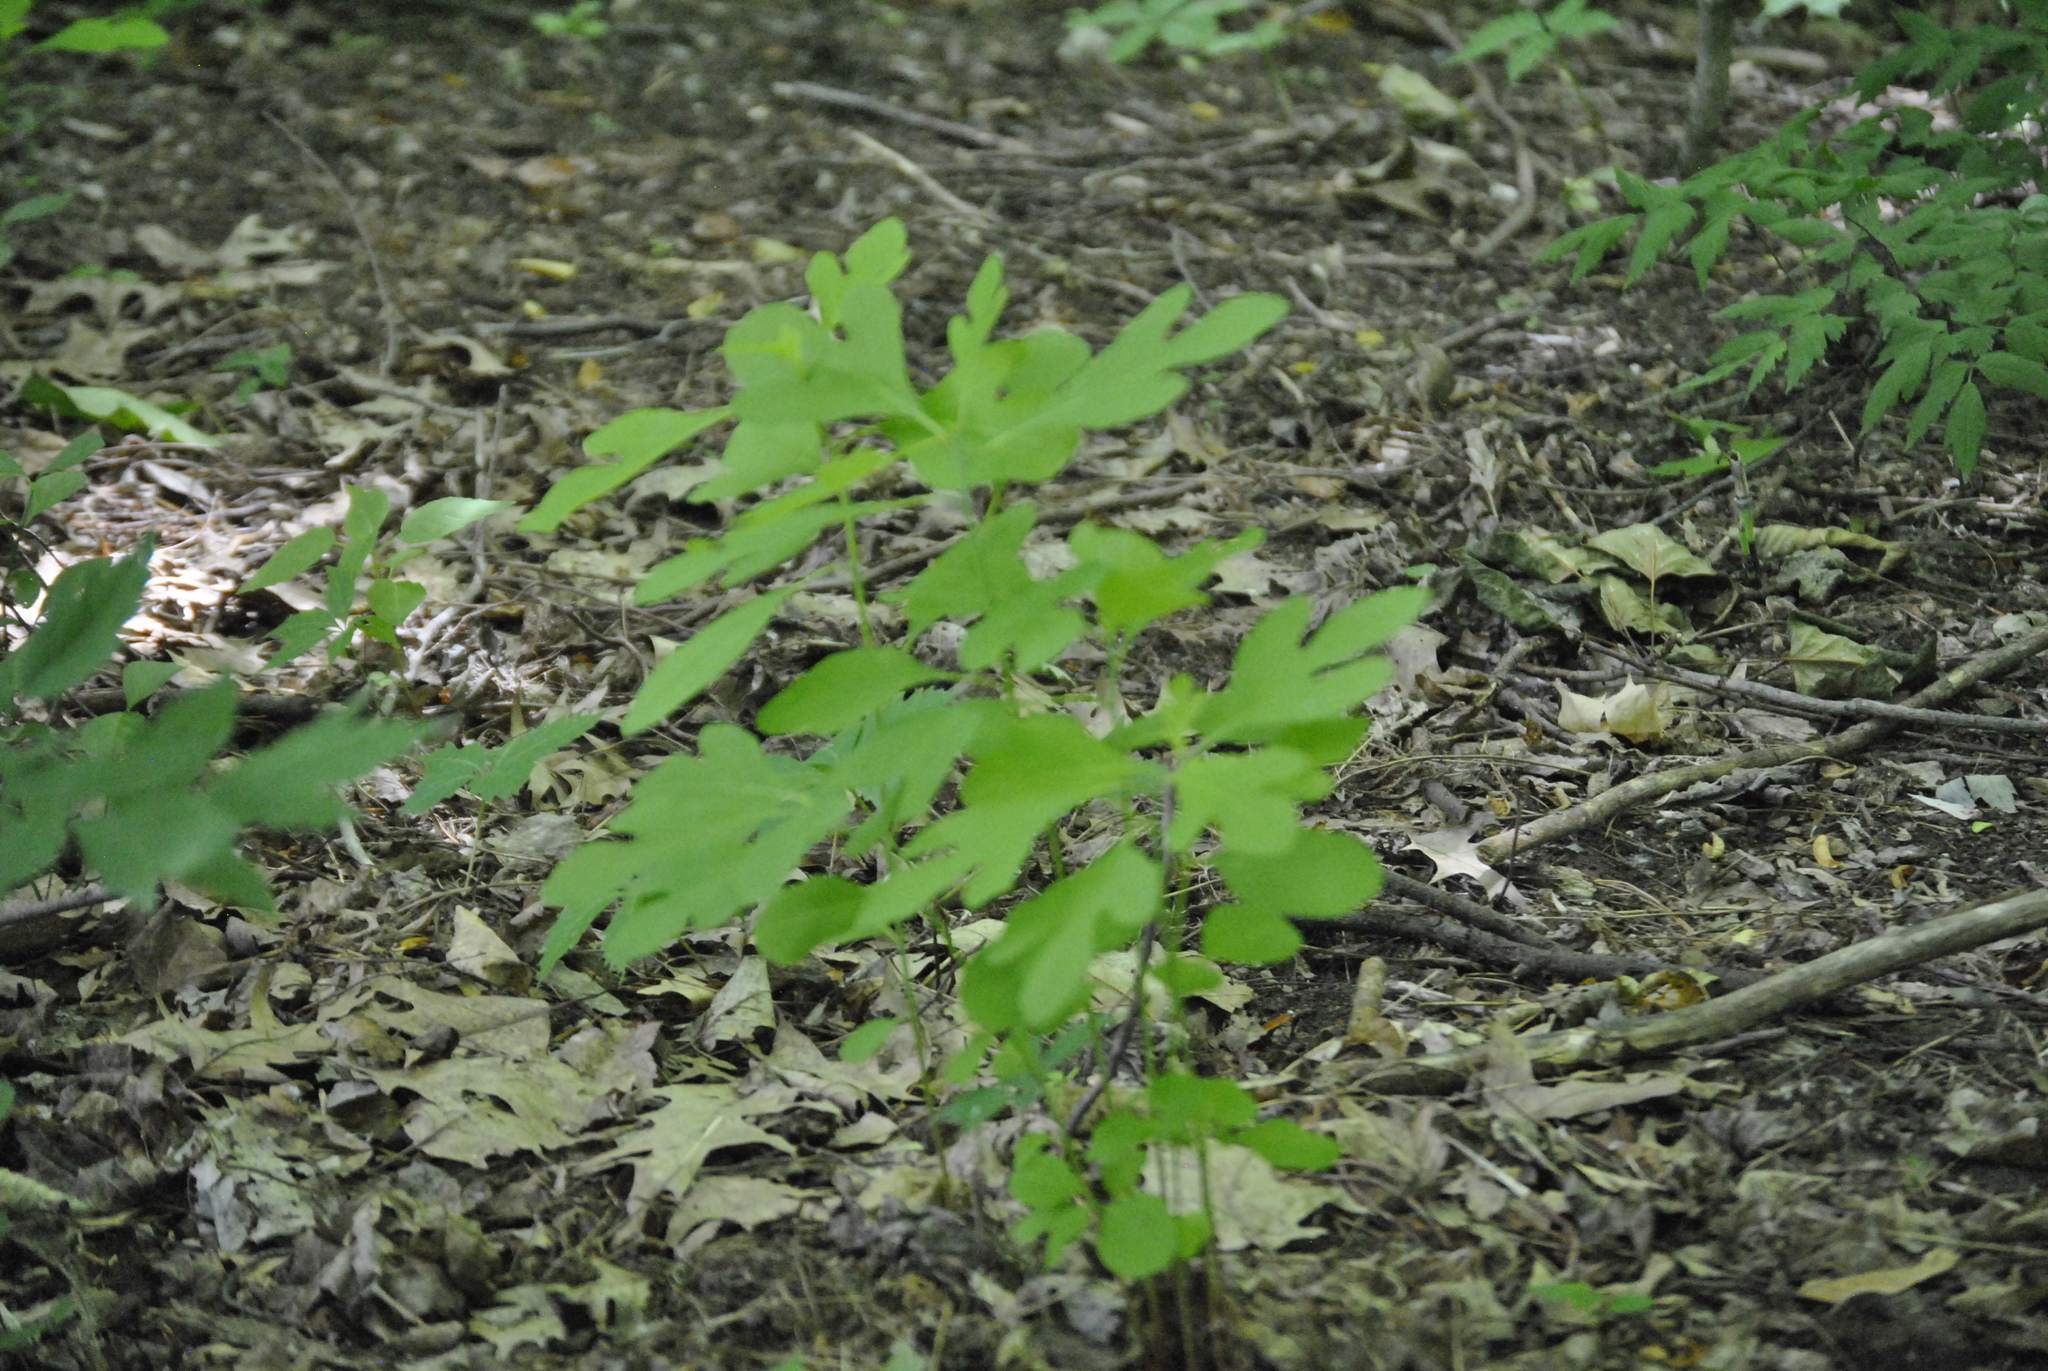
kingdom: Plantae
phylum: Tracheophyta
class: Magnoliopsida
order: Laurales
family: Lauraceae
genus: Sassafras
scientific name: Sassafras albidum
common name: Sassafras
